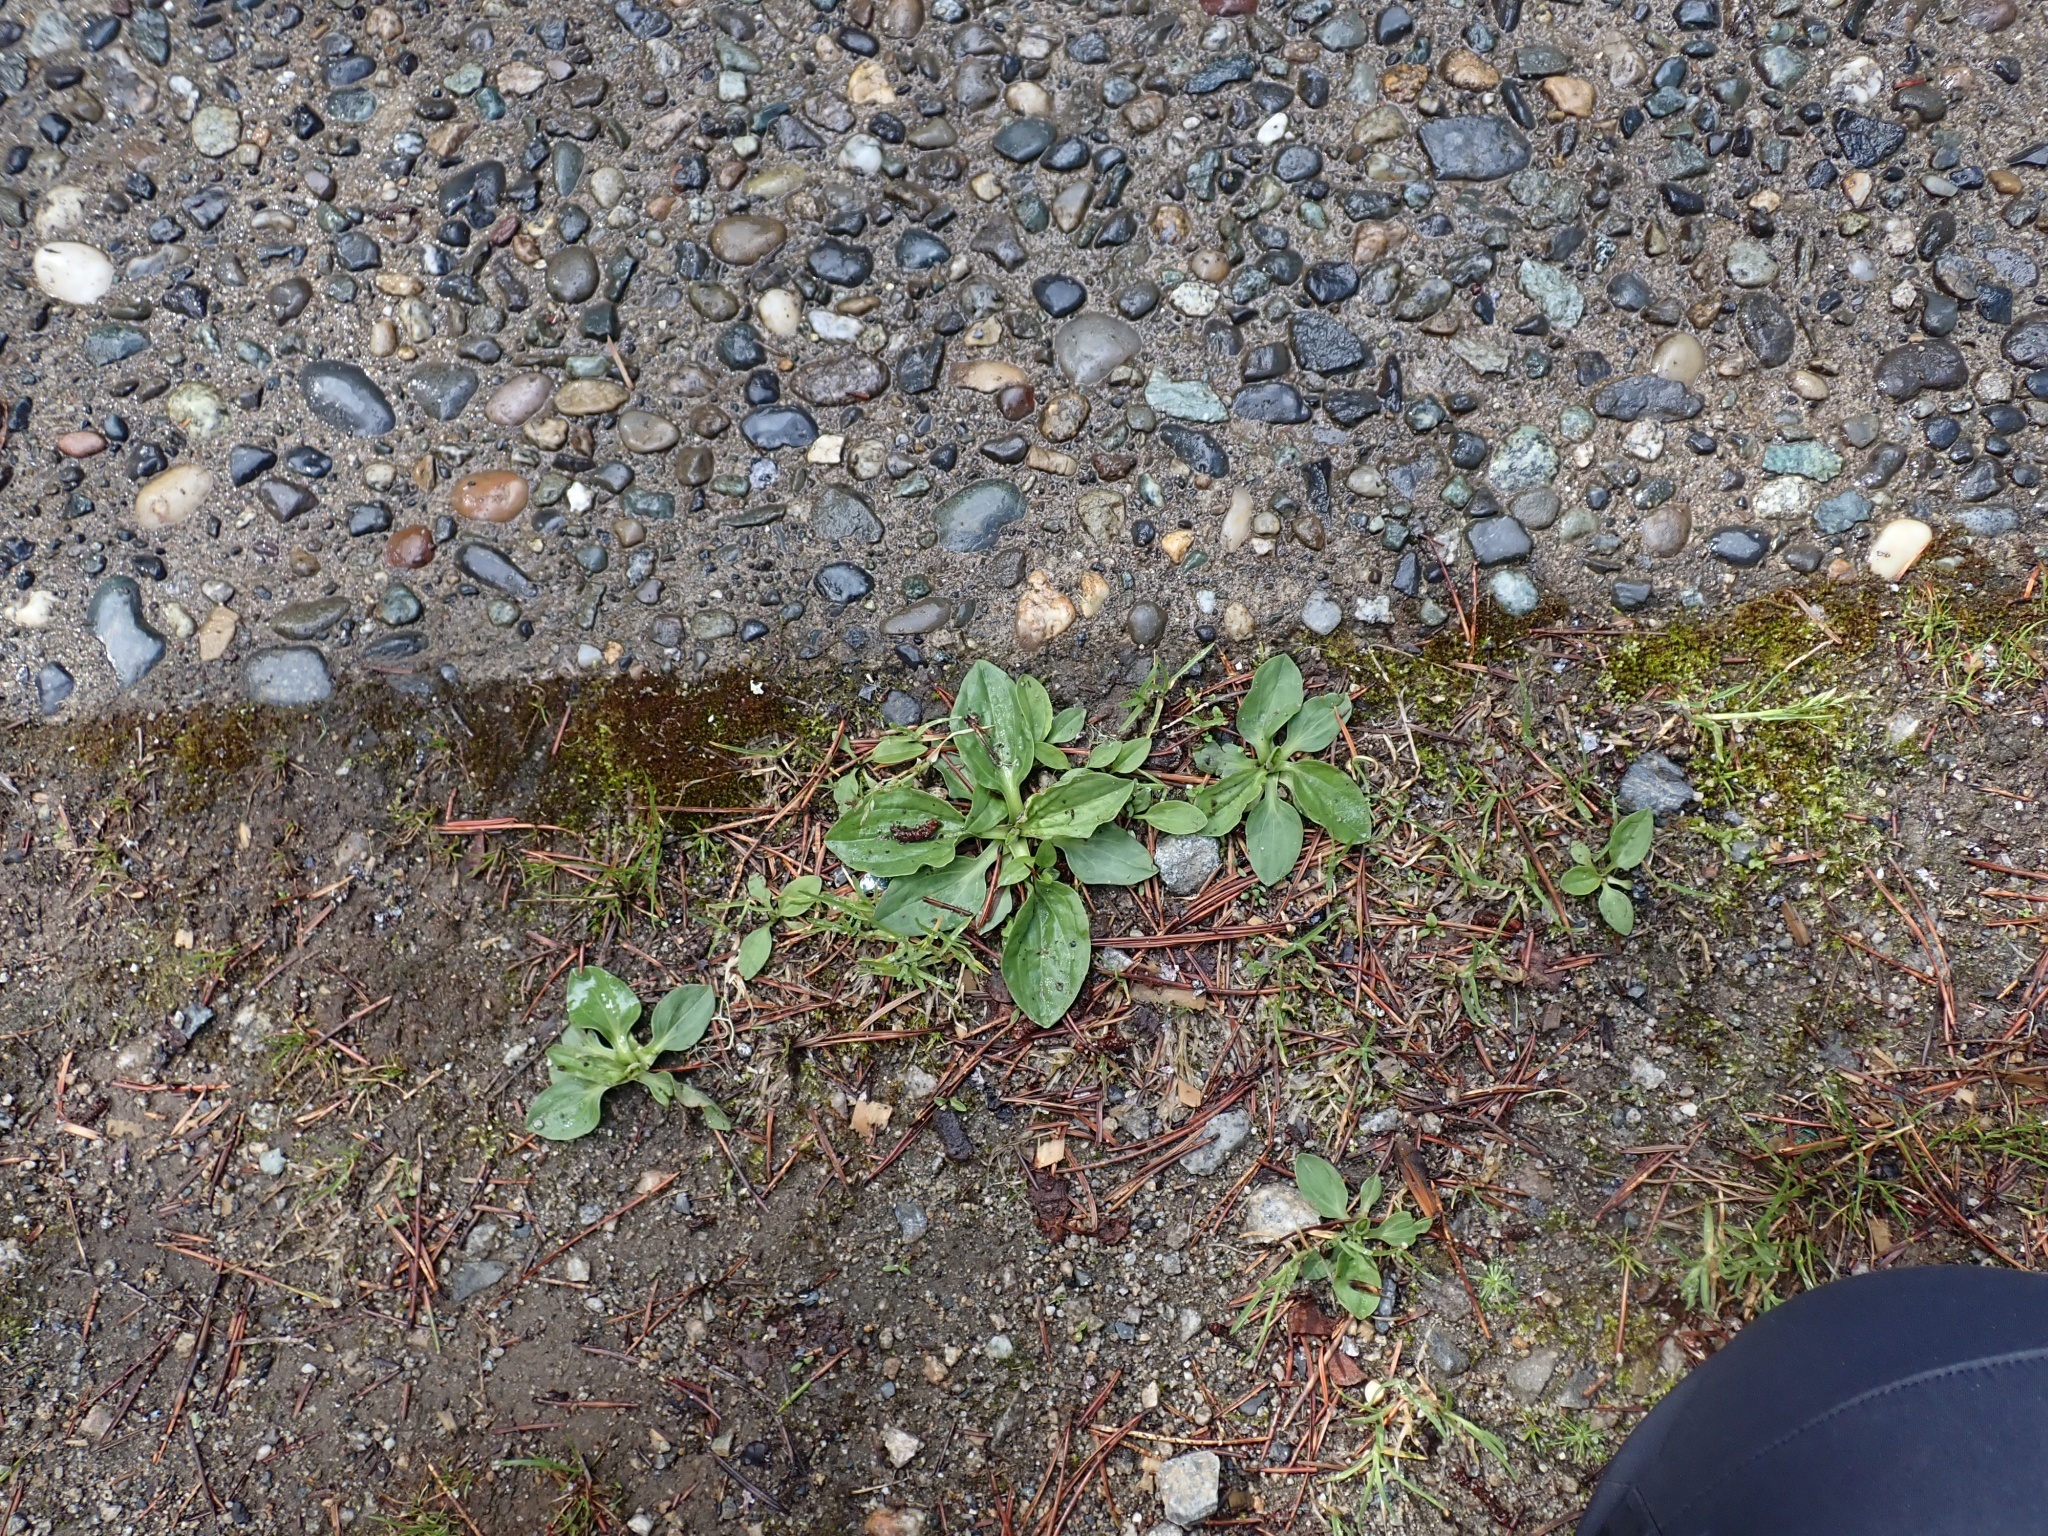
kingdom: Plantae
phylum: Tracheophyta
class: Magnoliopsida
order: Lamiales
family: Plantaginaceae
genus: Plantago
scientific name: Plantago major
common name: Common plantain
